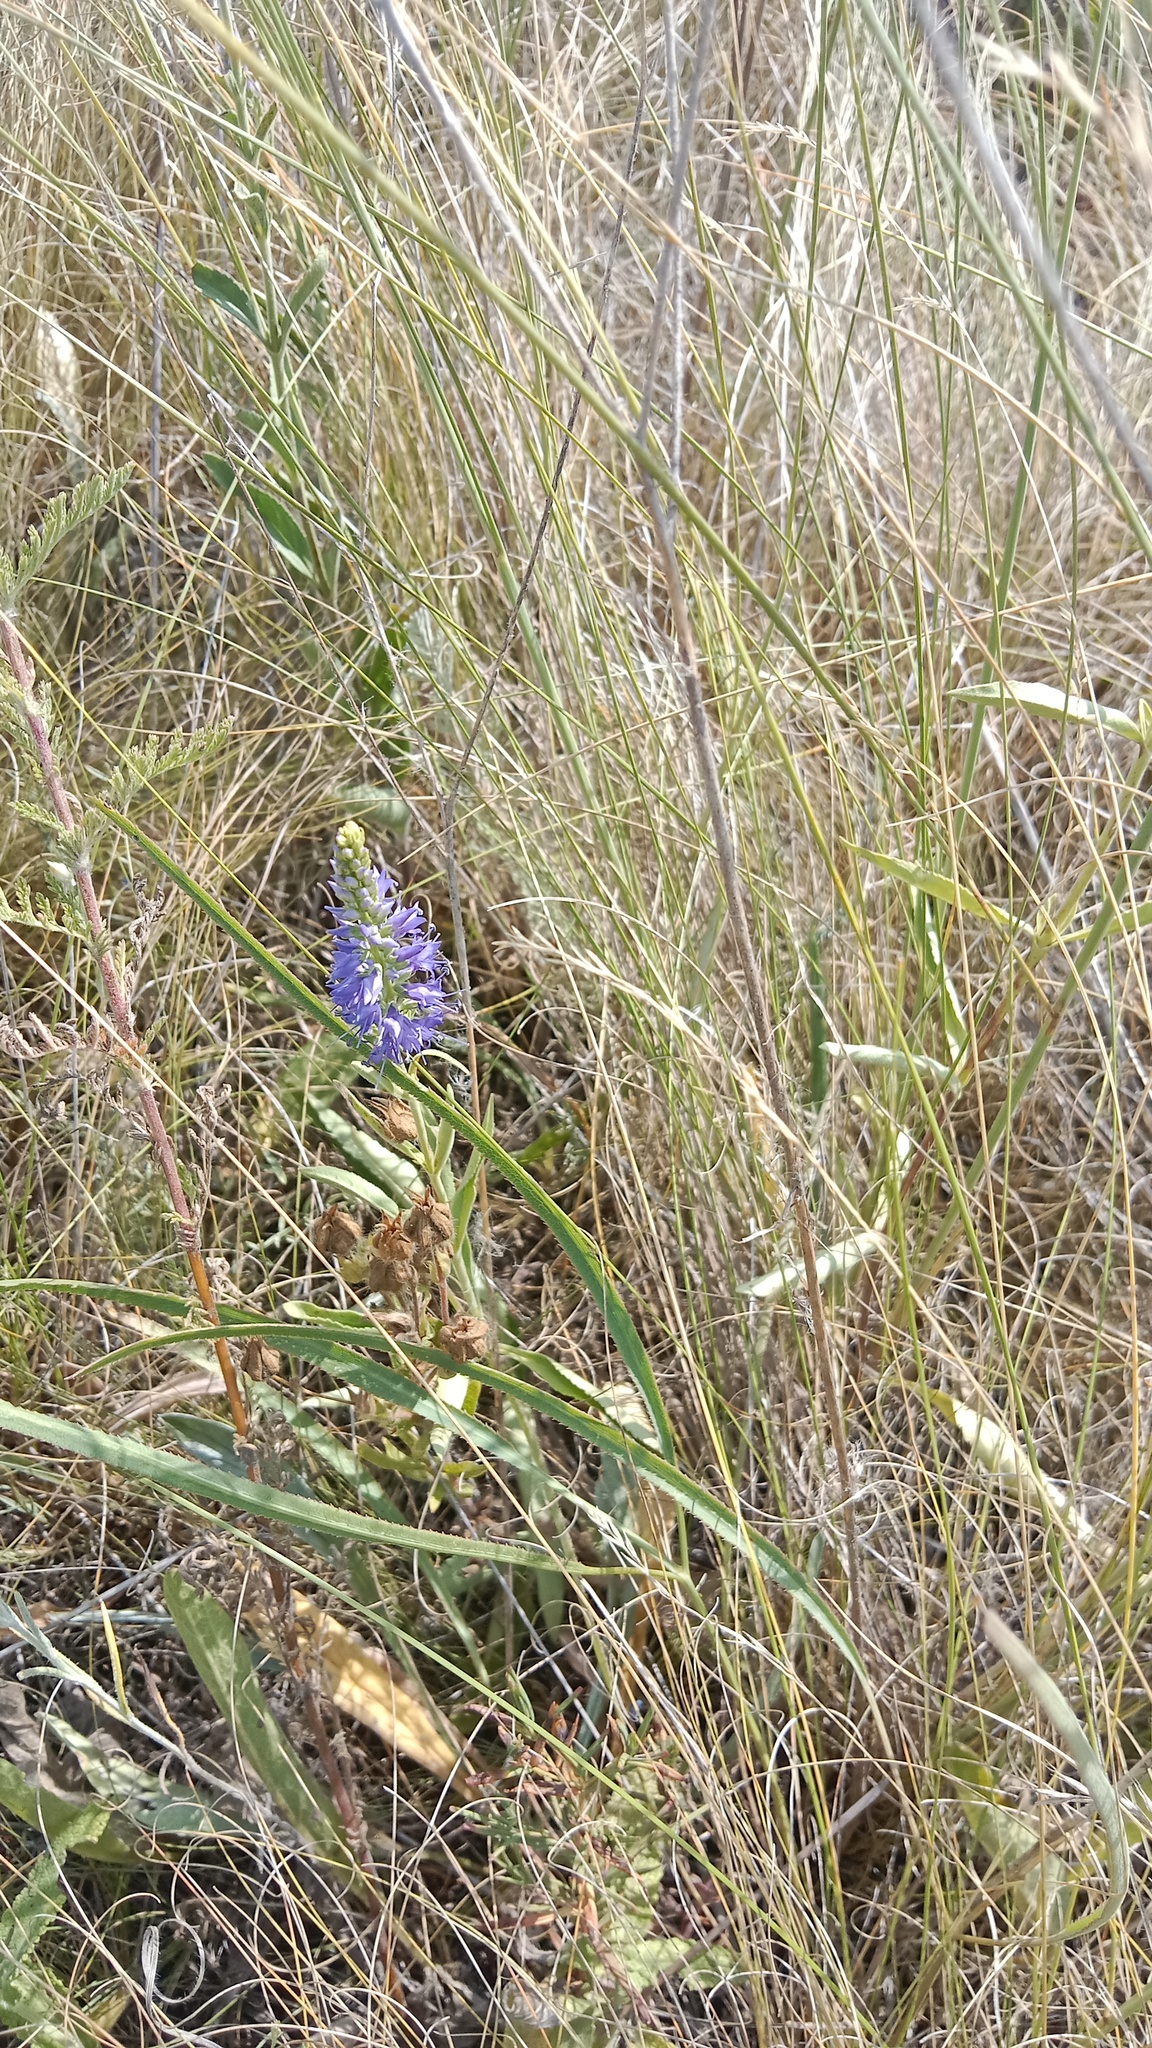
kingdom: Plantae
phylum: Tracheophyta
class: Magnoliopsida
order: Lamiales
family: Plantaginaceae
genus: Veronica
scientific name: Veronica barrelieri
